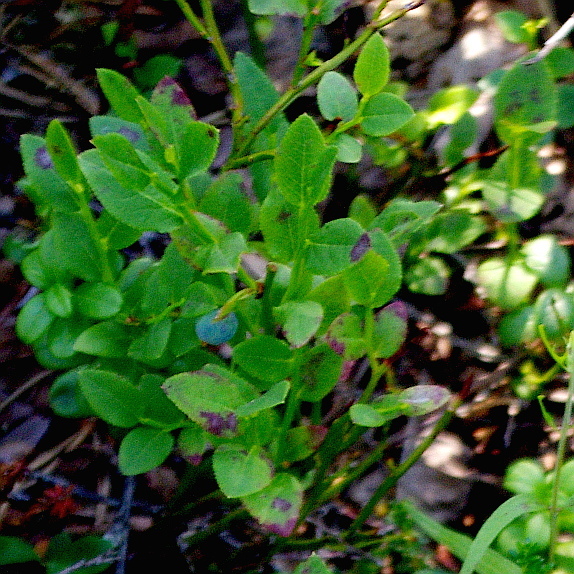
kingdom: Plantae
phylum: Tracheophyta
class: Magnoliopsida
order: Ericales
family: Ericaceae
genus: Vaccinium
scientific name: Vaccinium myrtillus
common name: Bilberry
